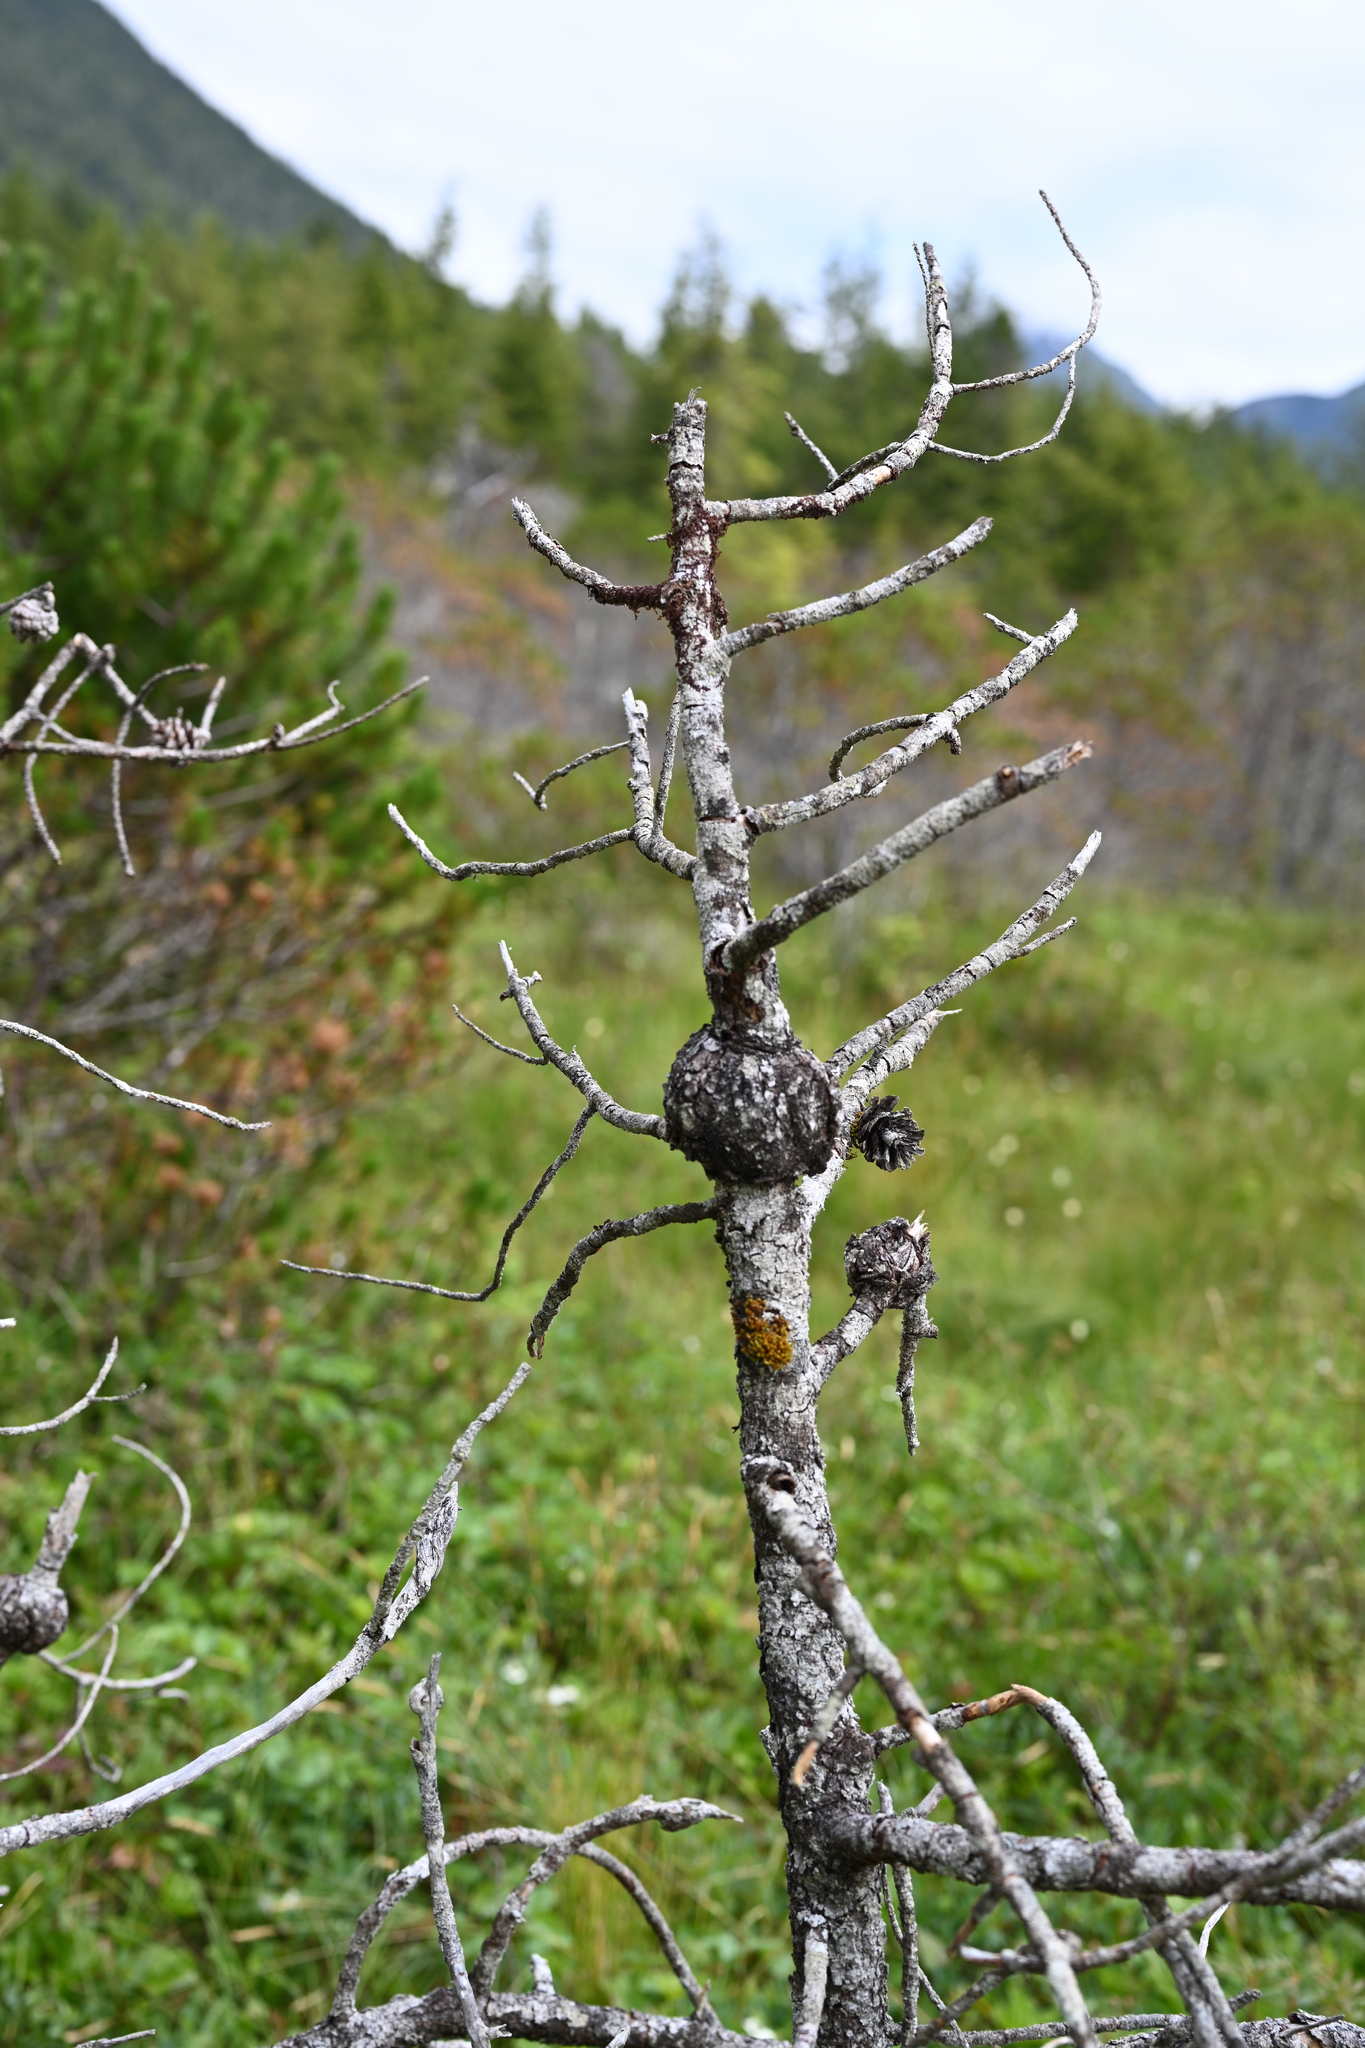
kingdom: Fungi
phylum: Basidiomycota
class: Pucciniomycetes
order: Pucciniales
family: Cronartiaceae
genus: Cronartium
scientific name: Cronartium harknessii
